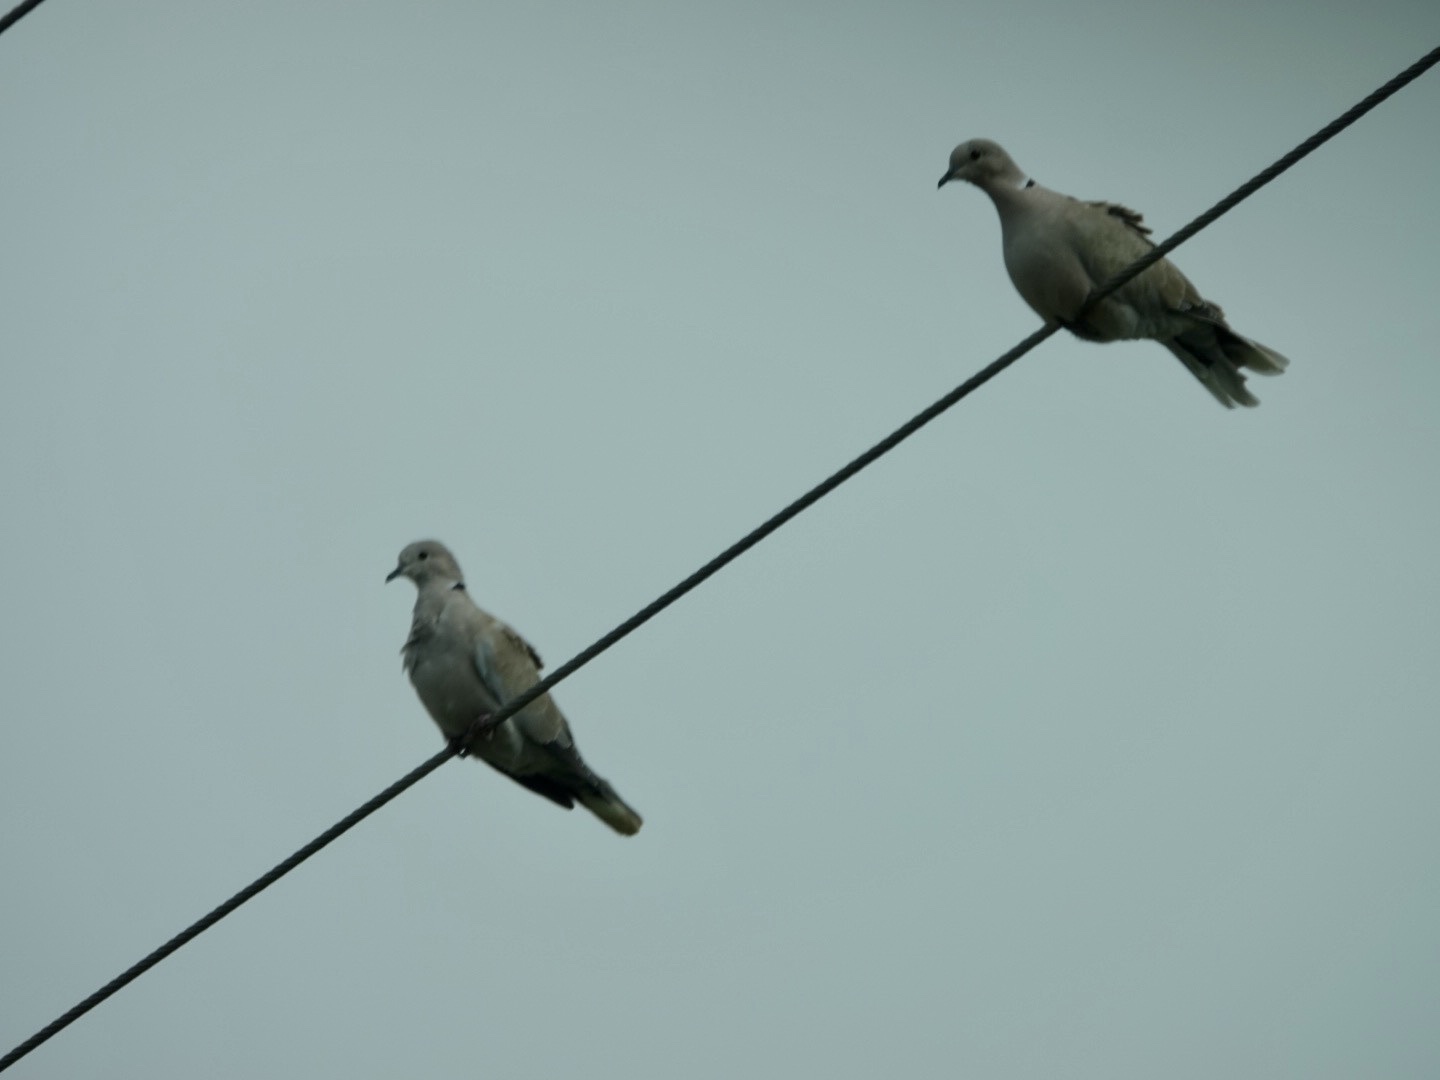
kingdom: Animalia
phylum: Chordata
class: Aves
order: Columbiformes
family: Columbidae
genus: Streptopelia
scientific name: Streptopelia decaocto
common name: Eurasian collared dove
